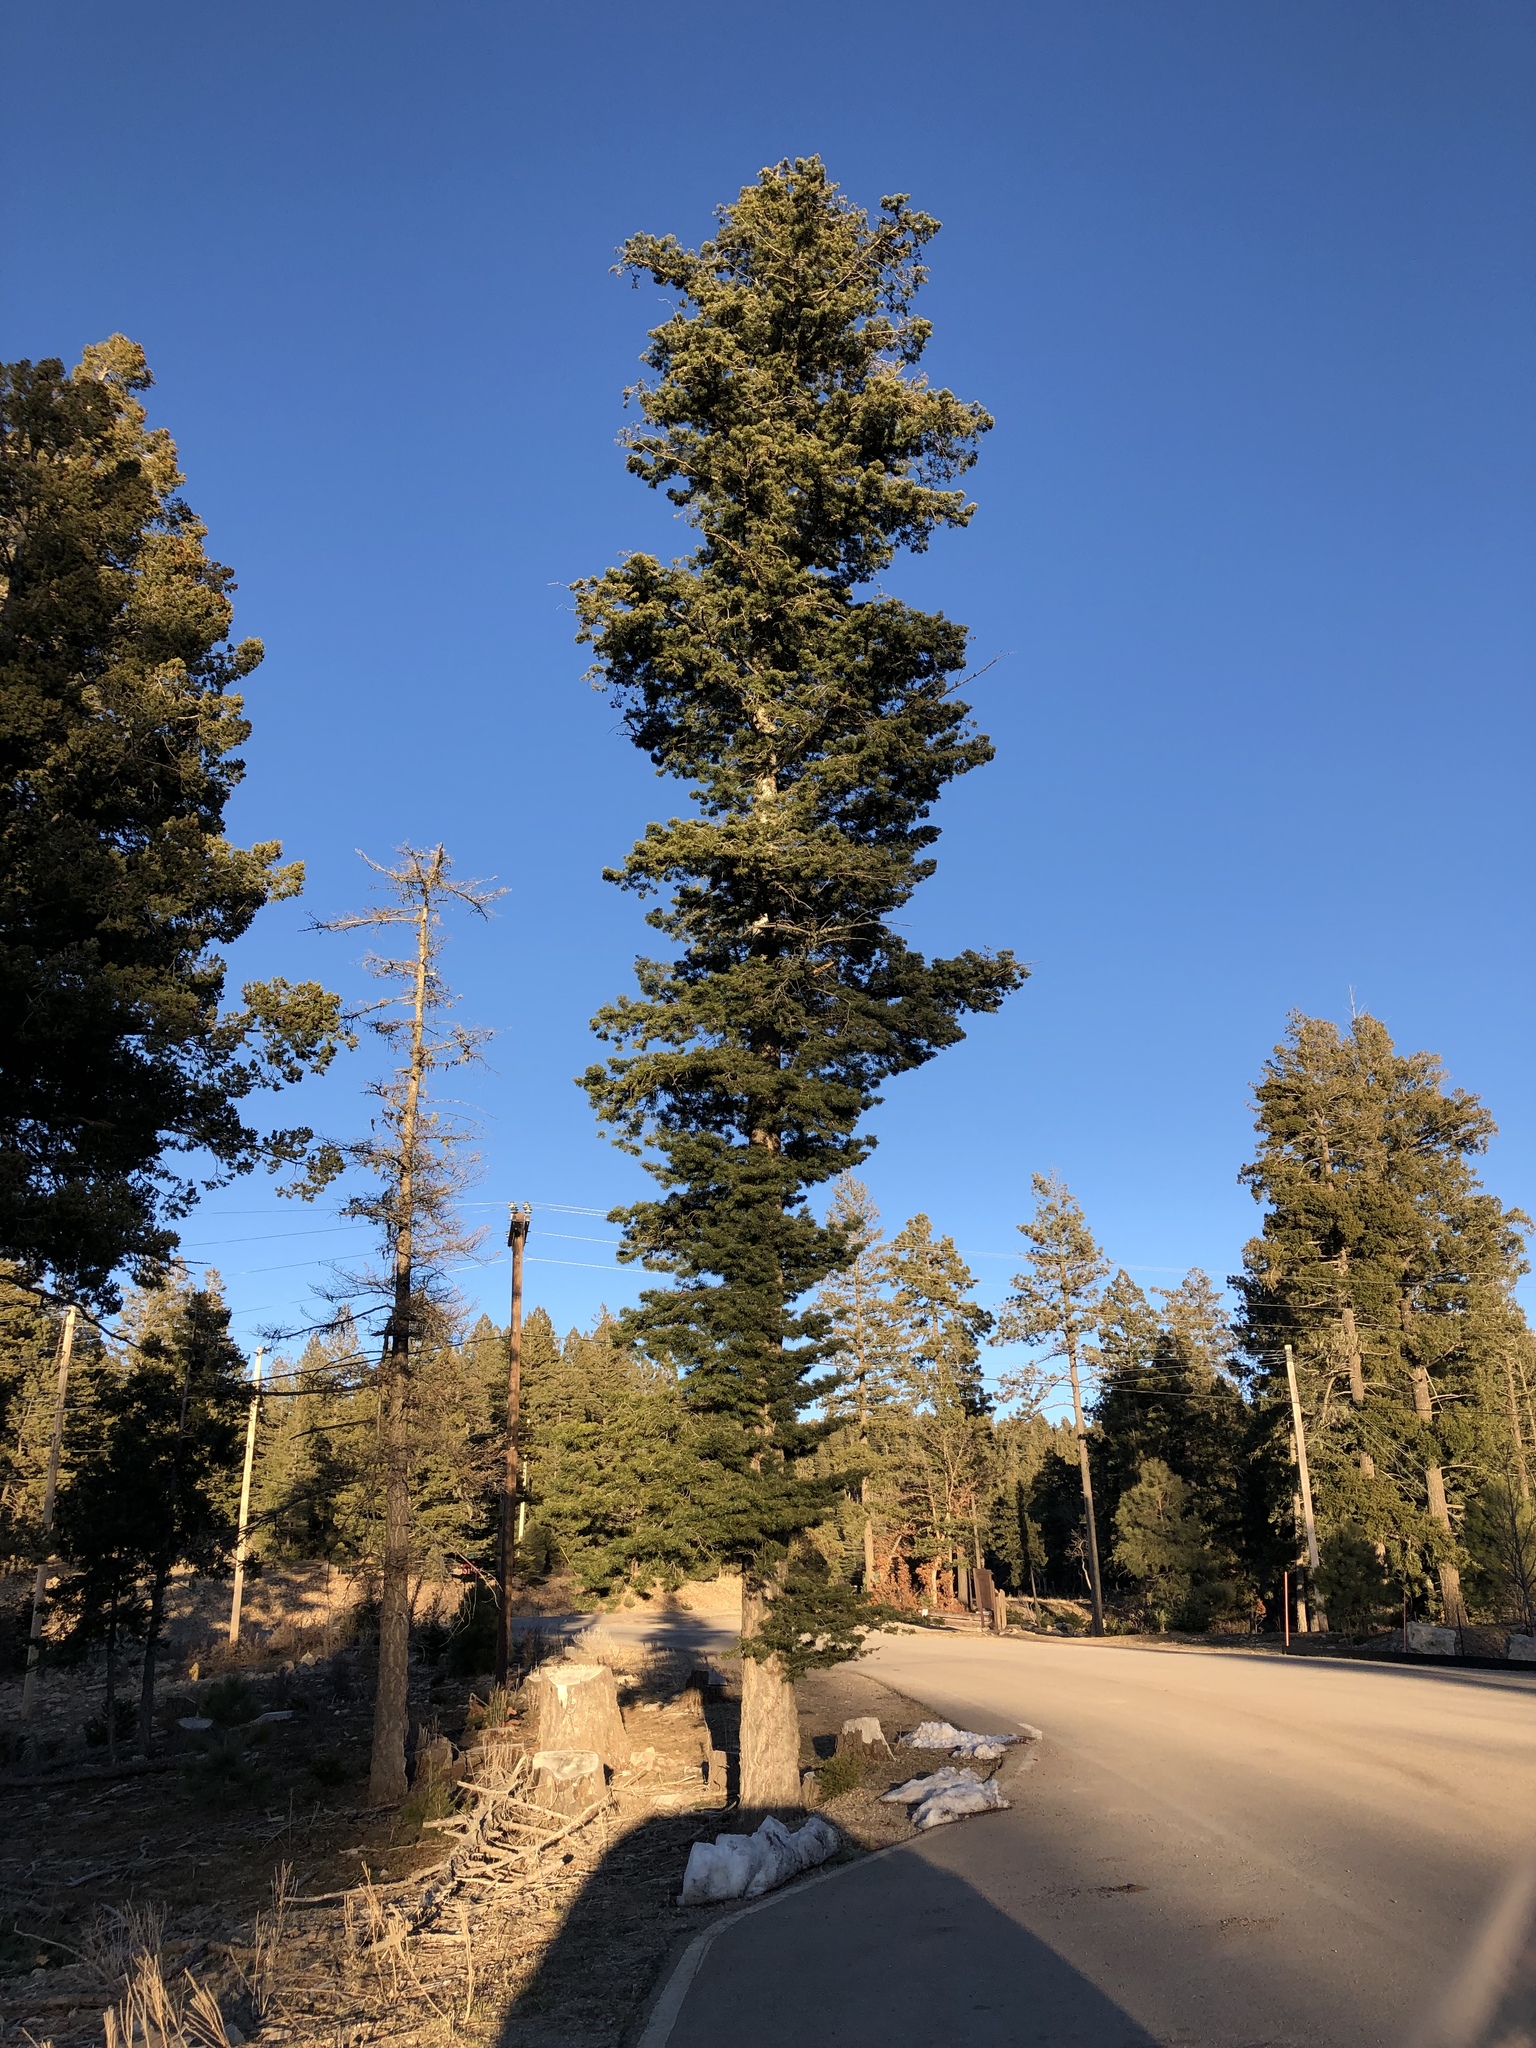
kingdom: Plantae
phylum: Tracheophyta
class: Pinopsida
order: Pinales
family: Pinaceae
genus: Pseudotsuga
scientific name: Pseudotsuga menziesii
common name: Douglas fir
